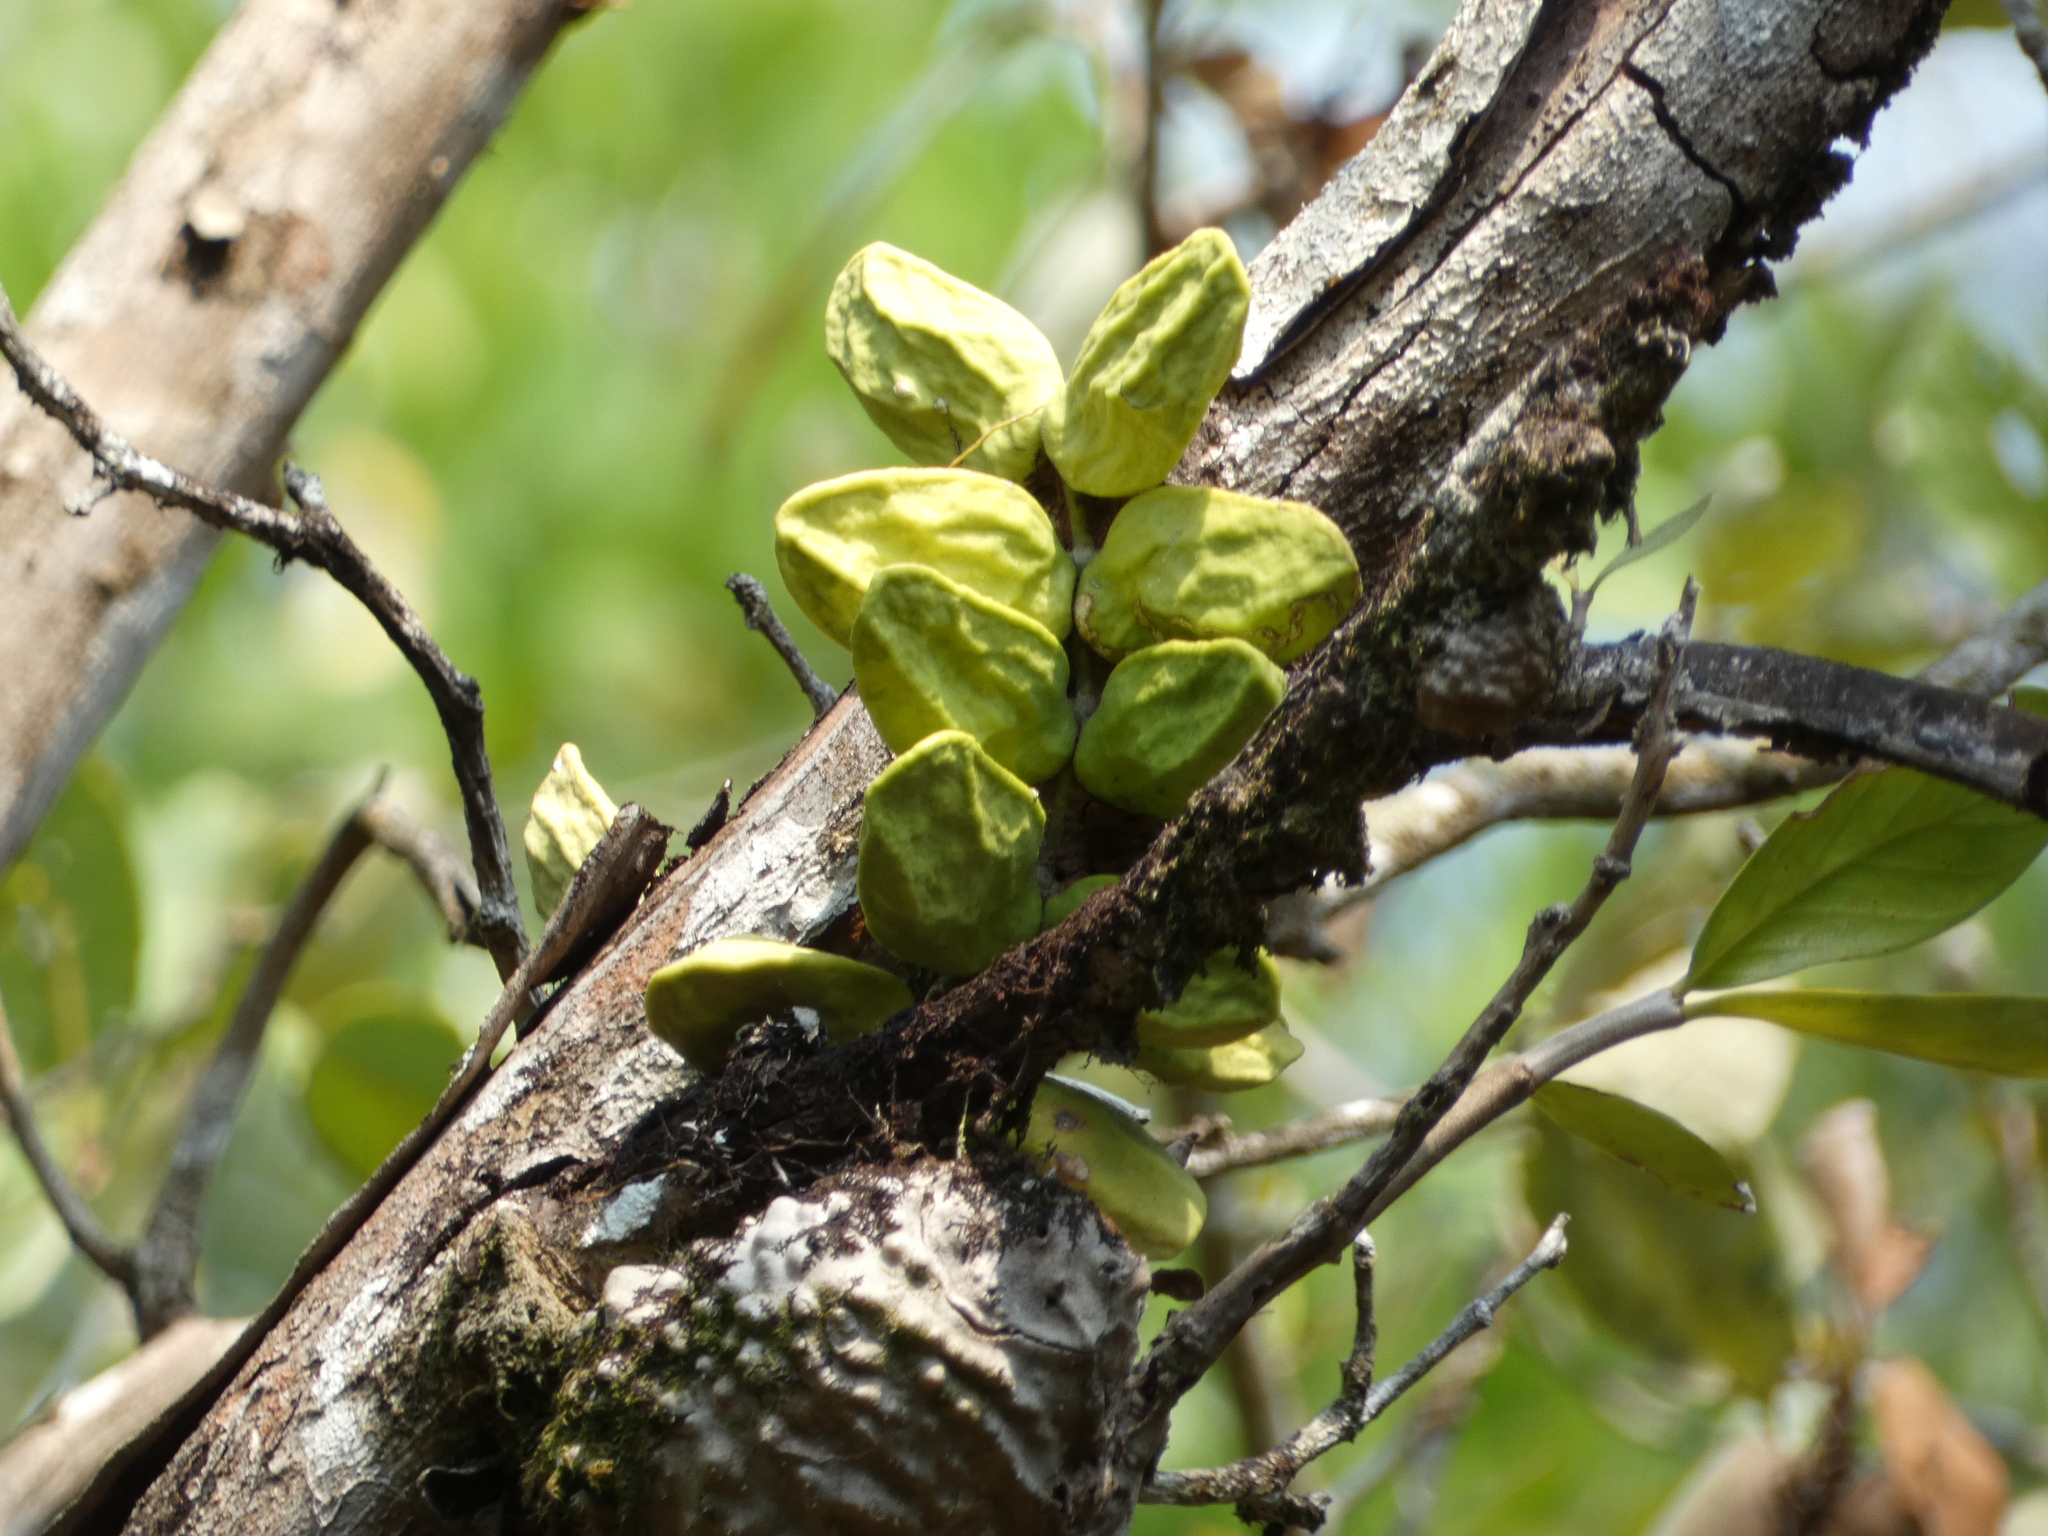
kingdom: Plantae
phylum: Tracheophyta
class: Magnoliopsida
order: Gentianales
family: Apocynaceae
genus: Dischidia
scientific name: Dischidia major
